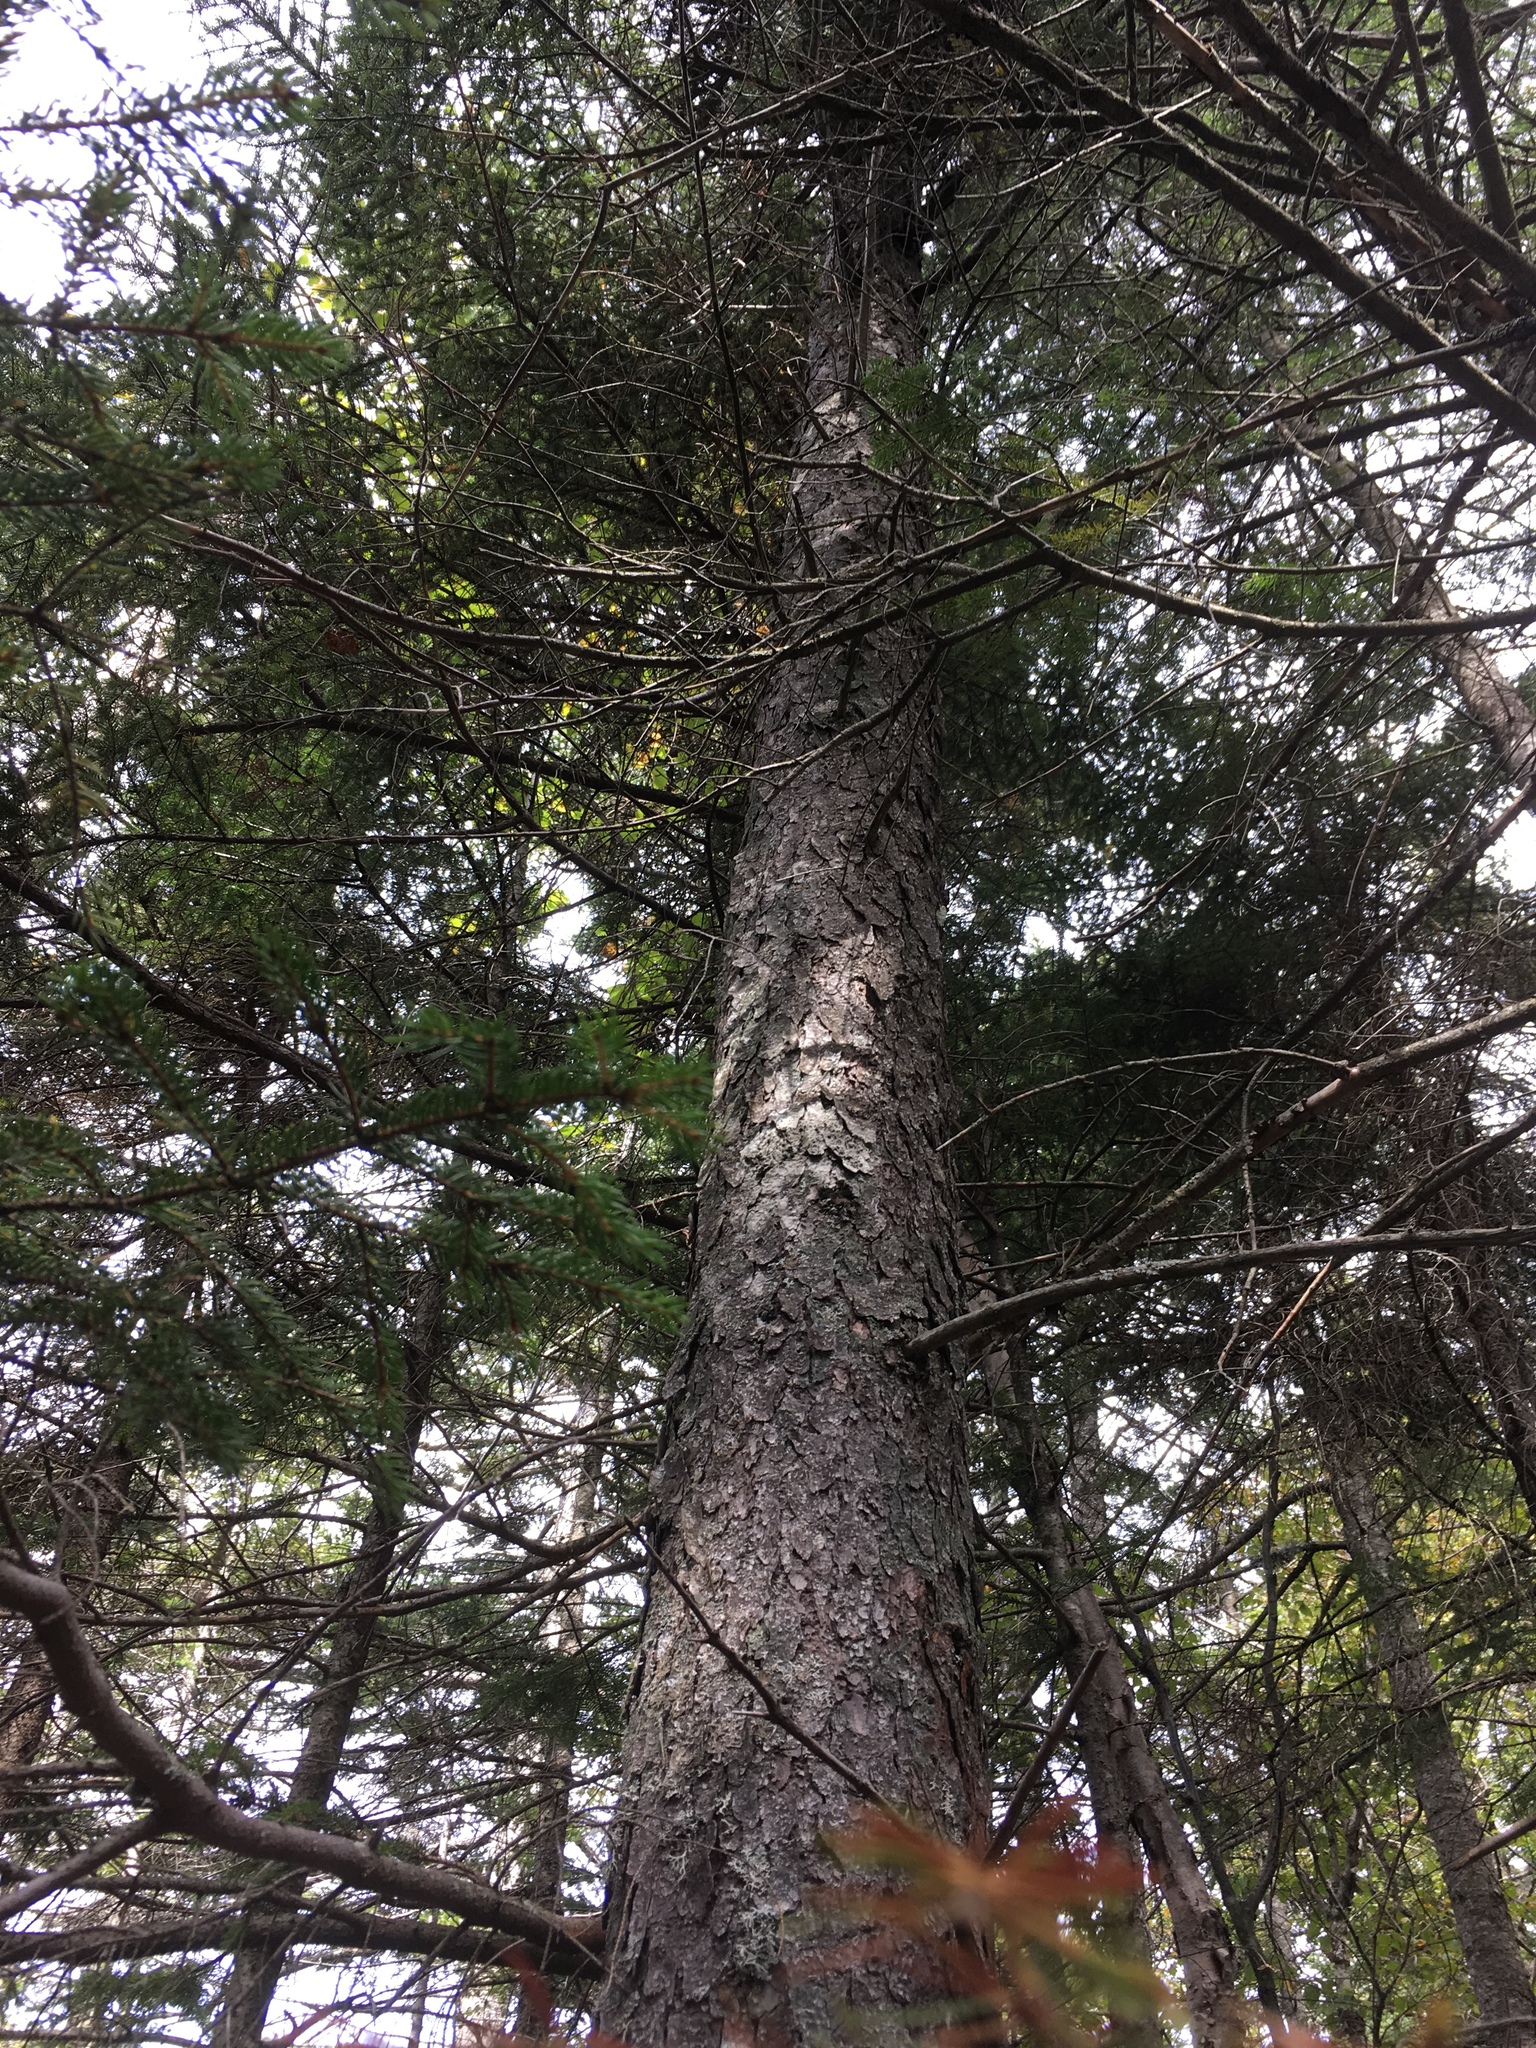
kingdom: Plantae
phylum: Tracheophyta
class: Pinopsida
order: Pinales
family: Pinaceae
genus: Picea
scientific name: Picea rubens
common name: Red spruce
